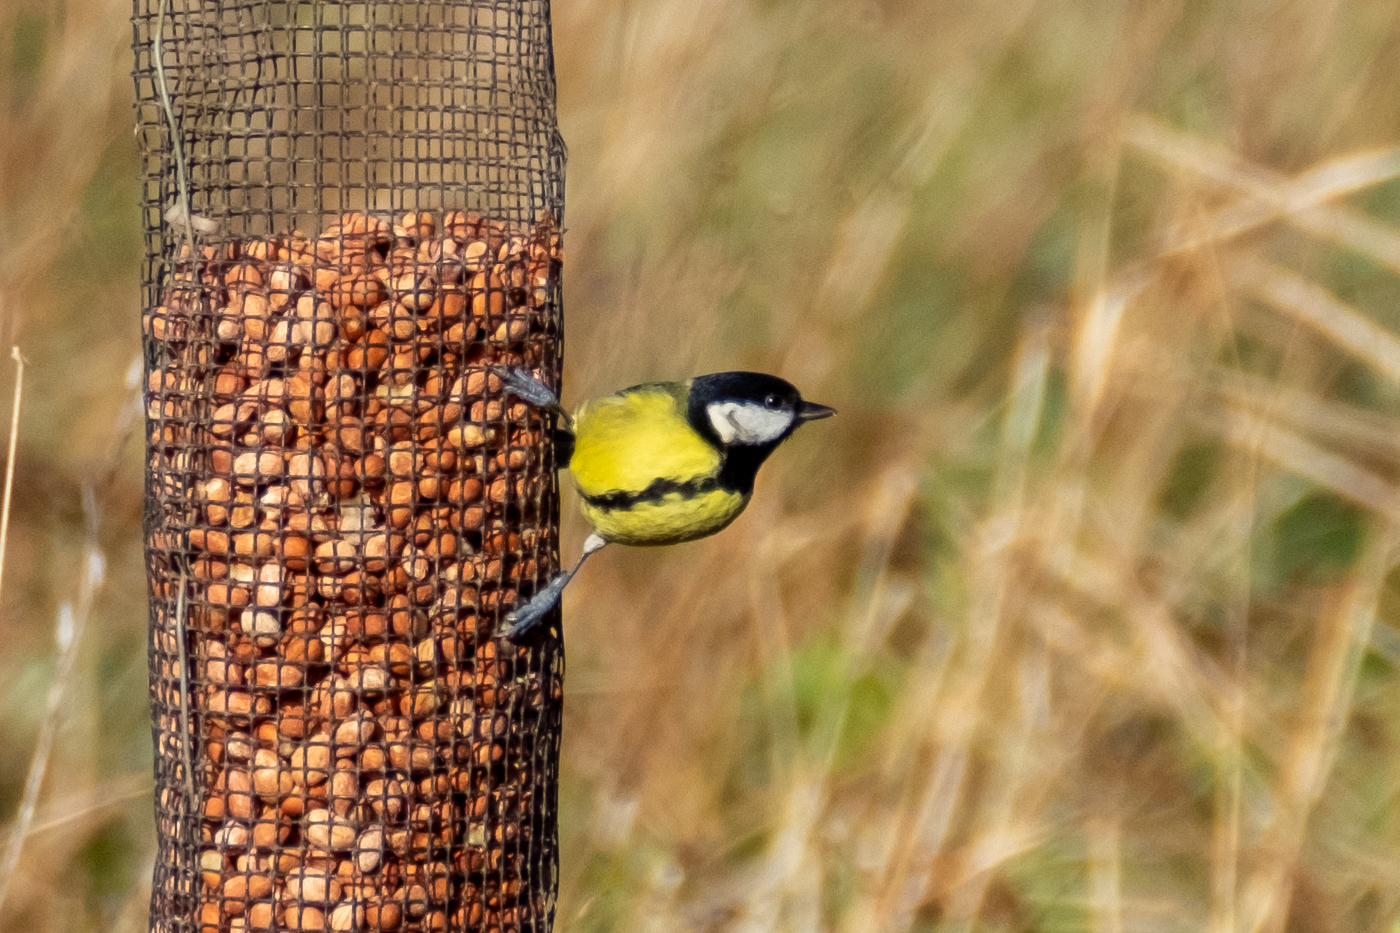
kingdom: Animalia
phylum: Chordata
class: Aves
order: Passeriformes
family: Paridae
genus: Parus
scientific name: Parus major
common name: Great tit
